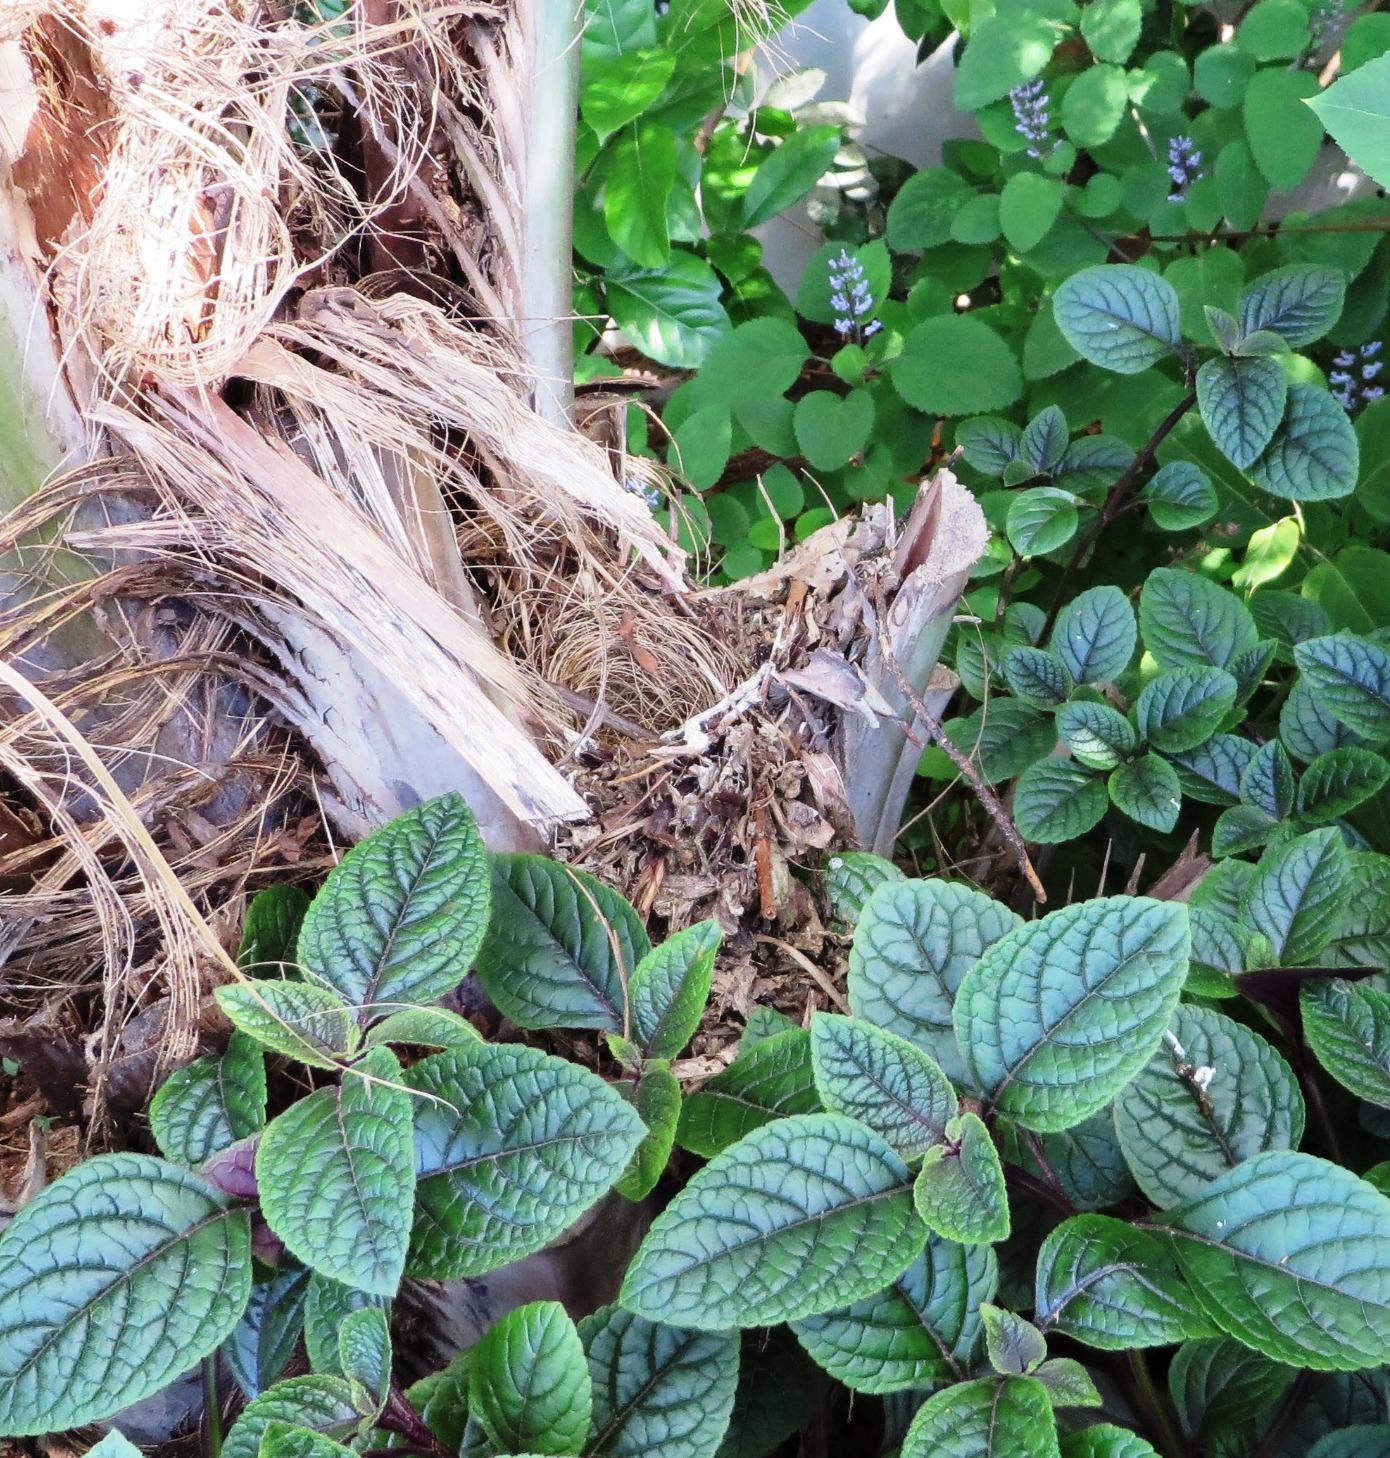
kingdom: Animalia
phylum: Chordata
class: Aves
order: Passeriformes
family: Muscicapidae
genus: Cossypha
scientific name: Cossypha caffra
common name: Cape robin-chat
